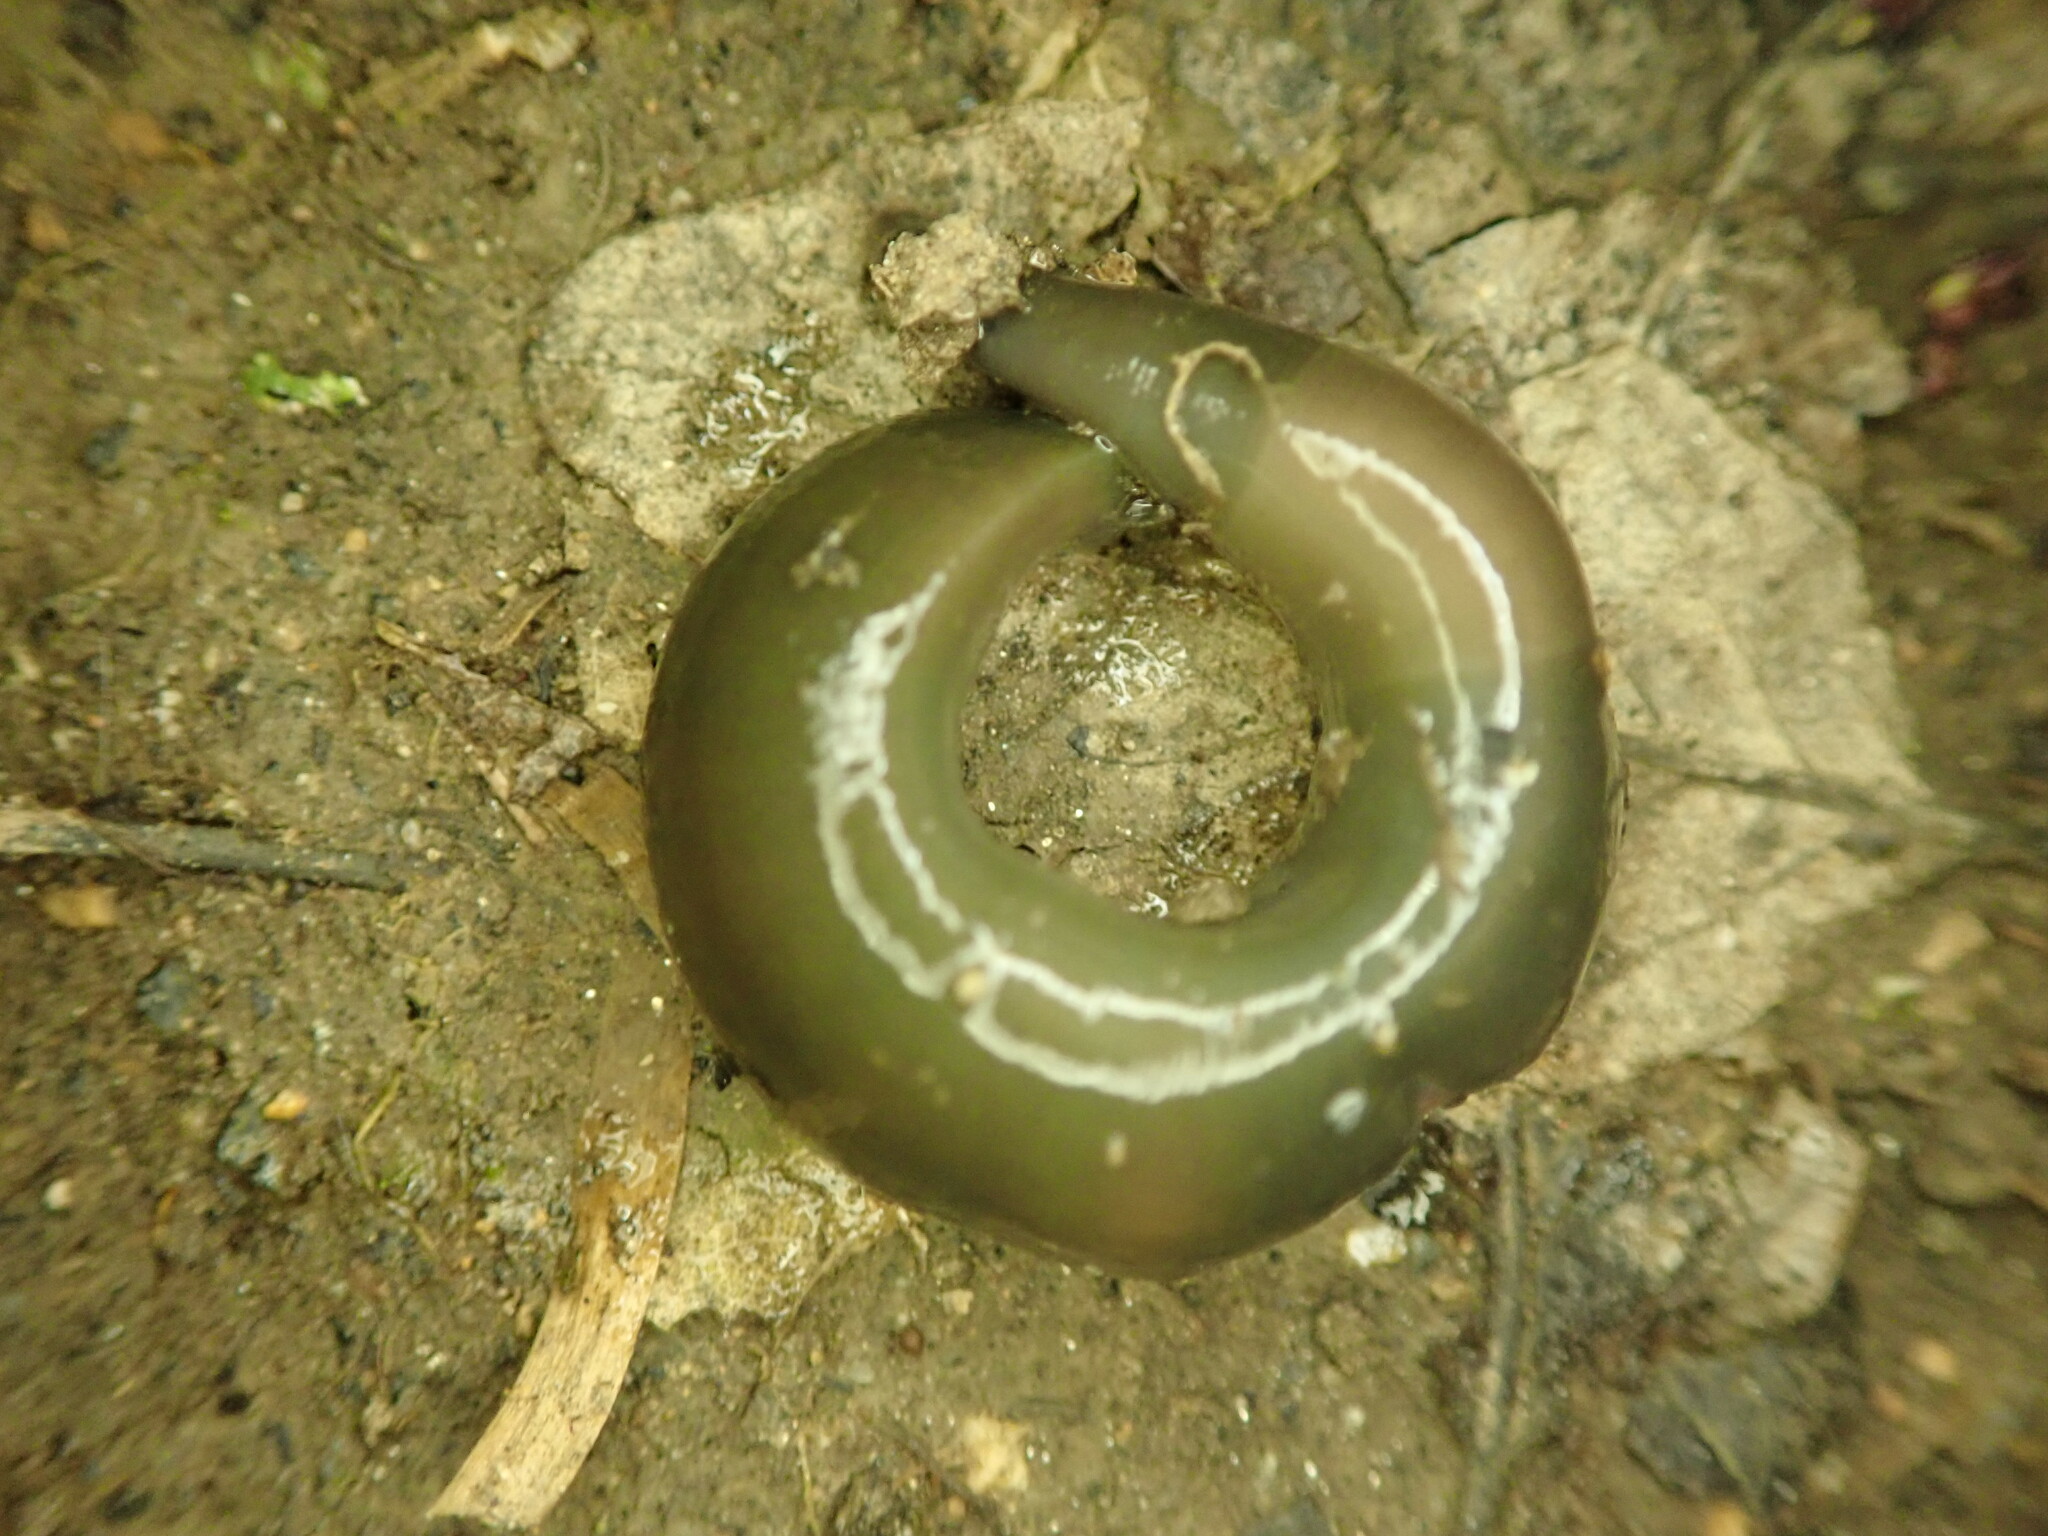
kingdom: Animalia
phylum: Annelida
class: Clitellata
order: Arhynchobdellida
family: Erpobdellidae
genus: Trocheta
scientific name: Trocheta subviridis
